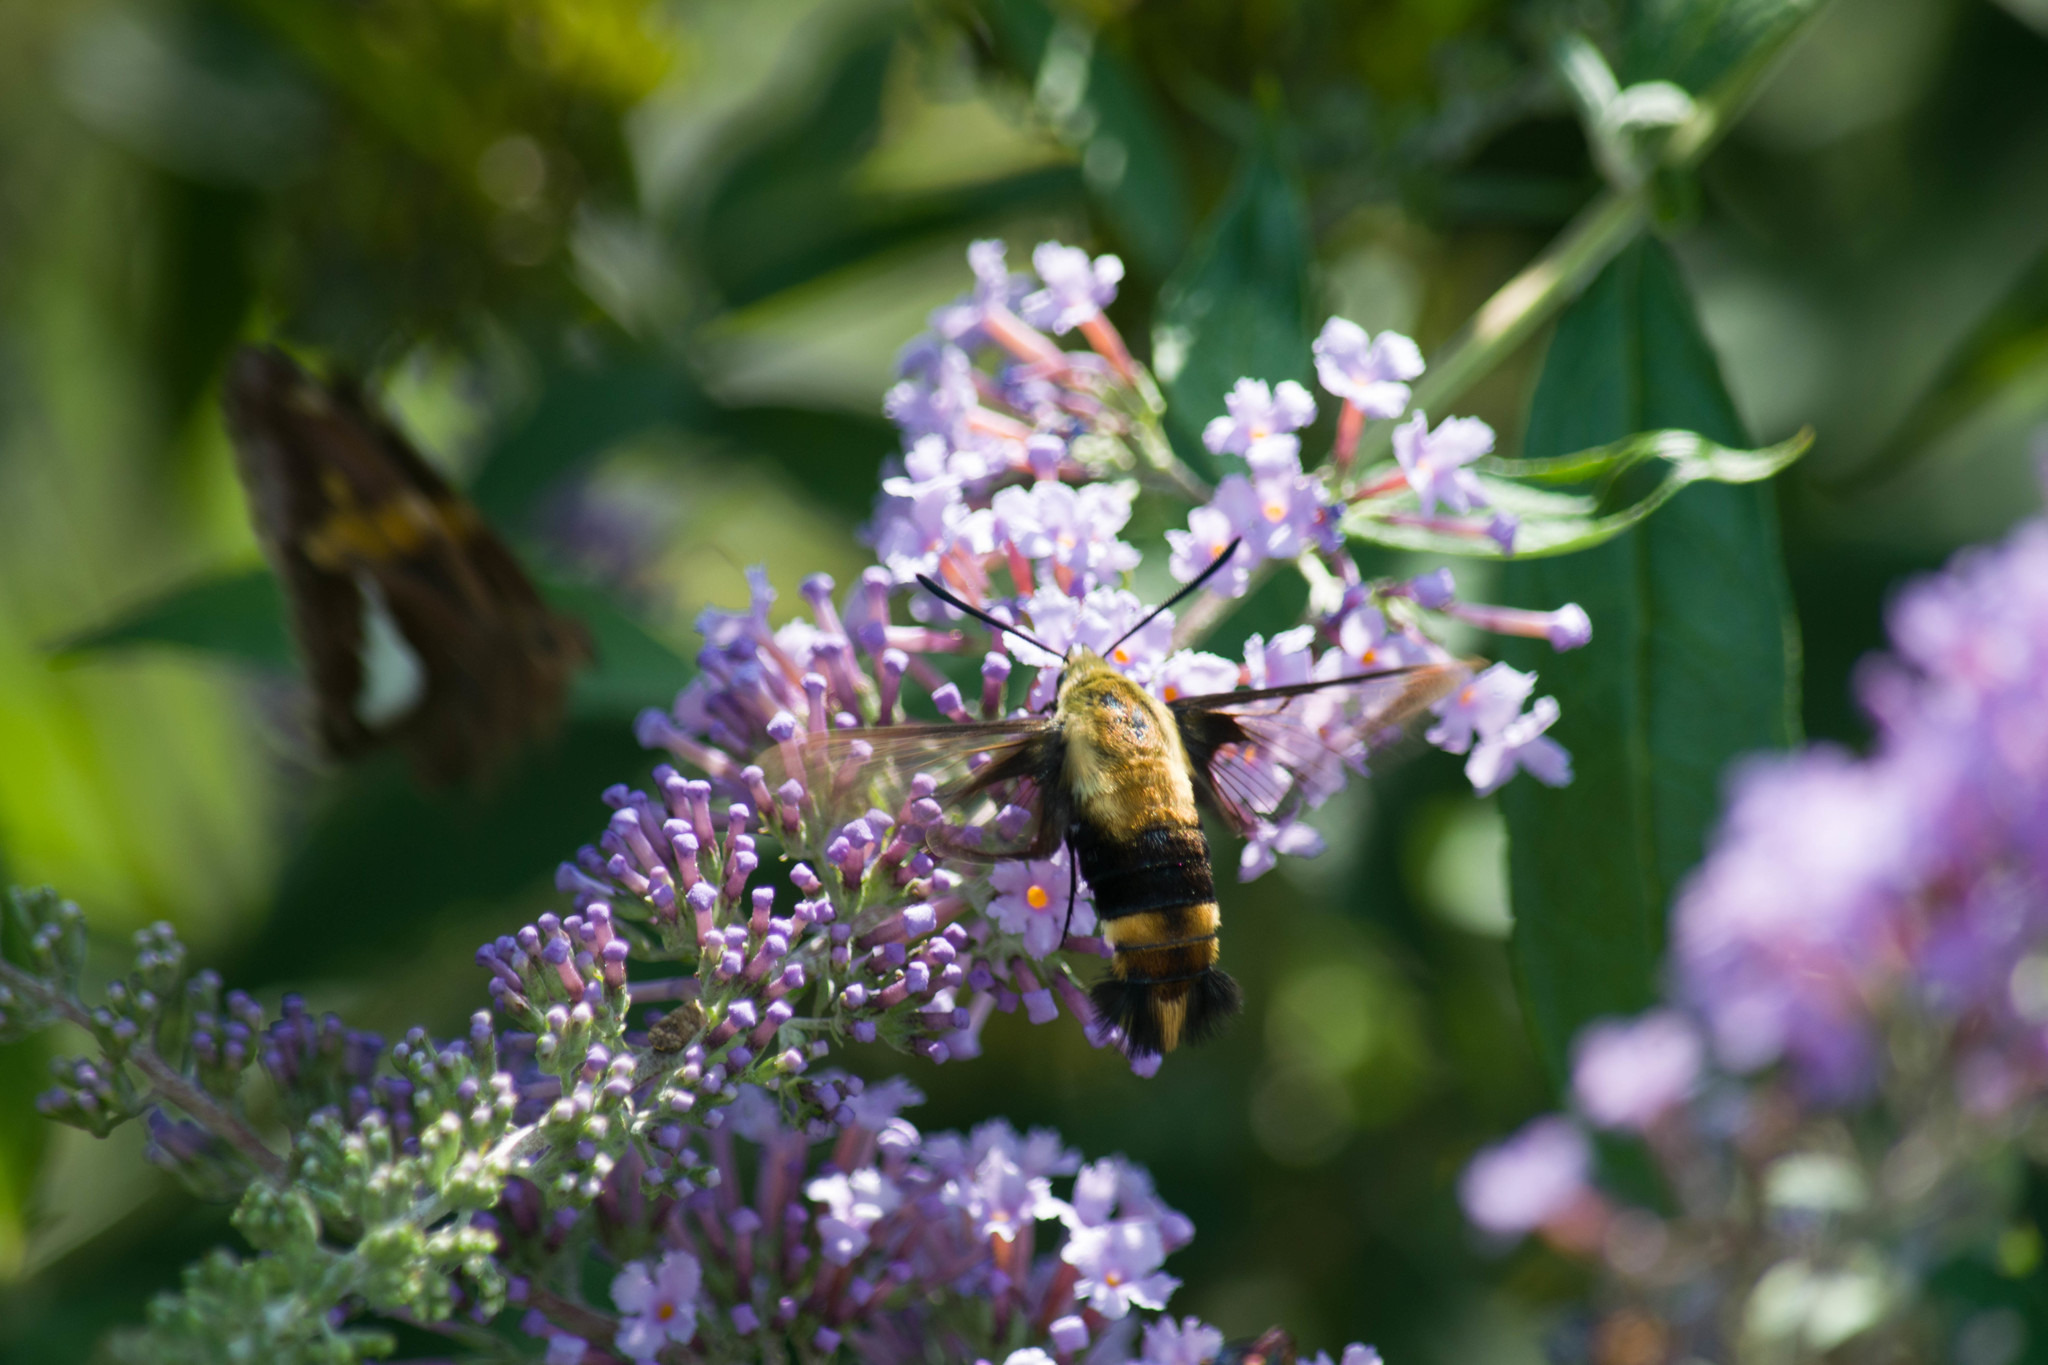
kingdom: Animalia
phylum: Arthropoda
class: Insecta
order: Lepidoptera
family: Sphingidae
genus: Hemaris
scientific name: Hemaris diffinis
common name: Bumblebee moth
